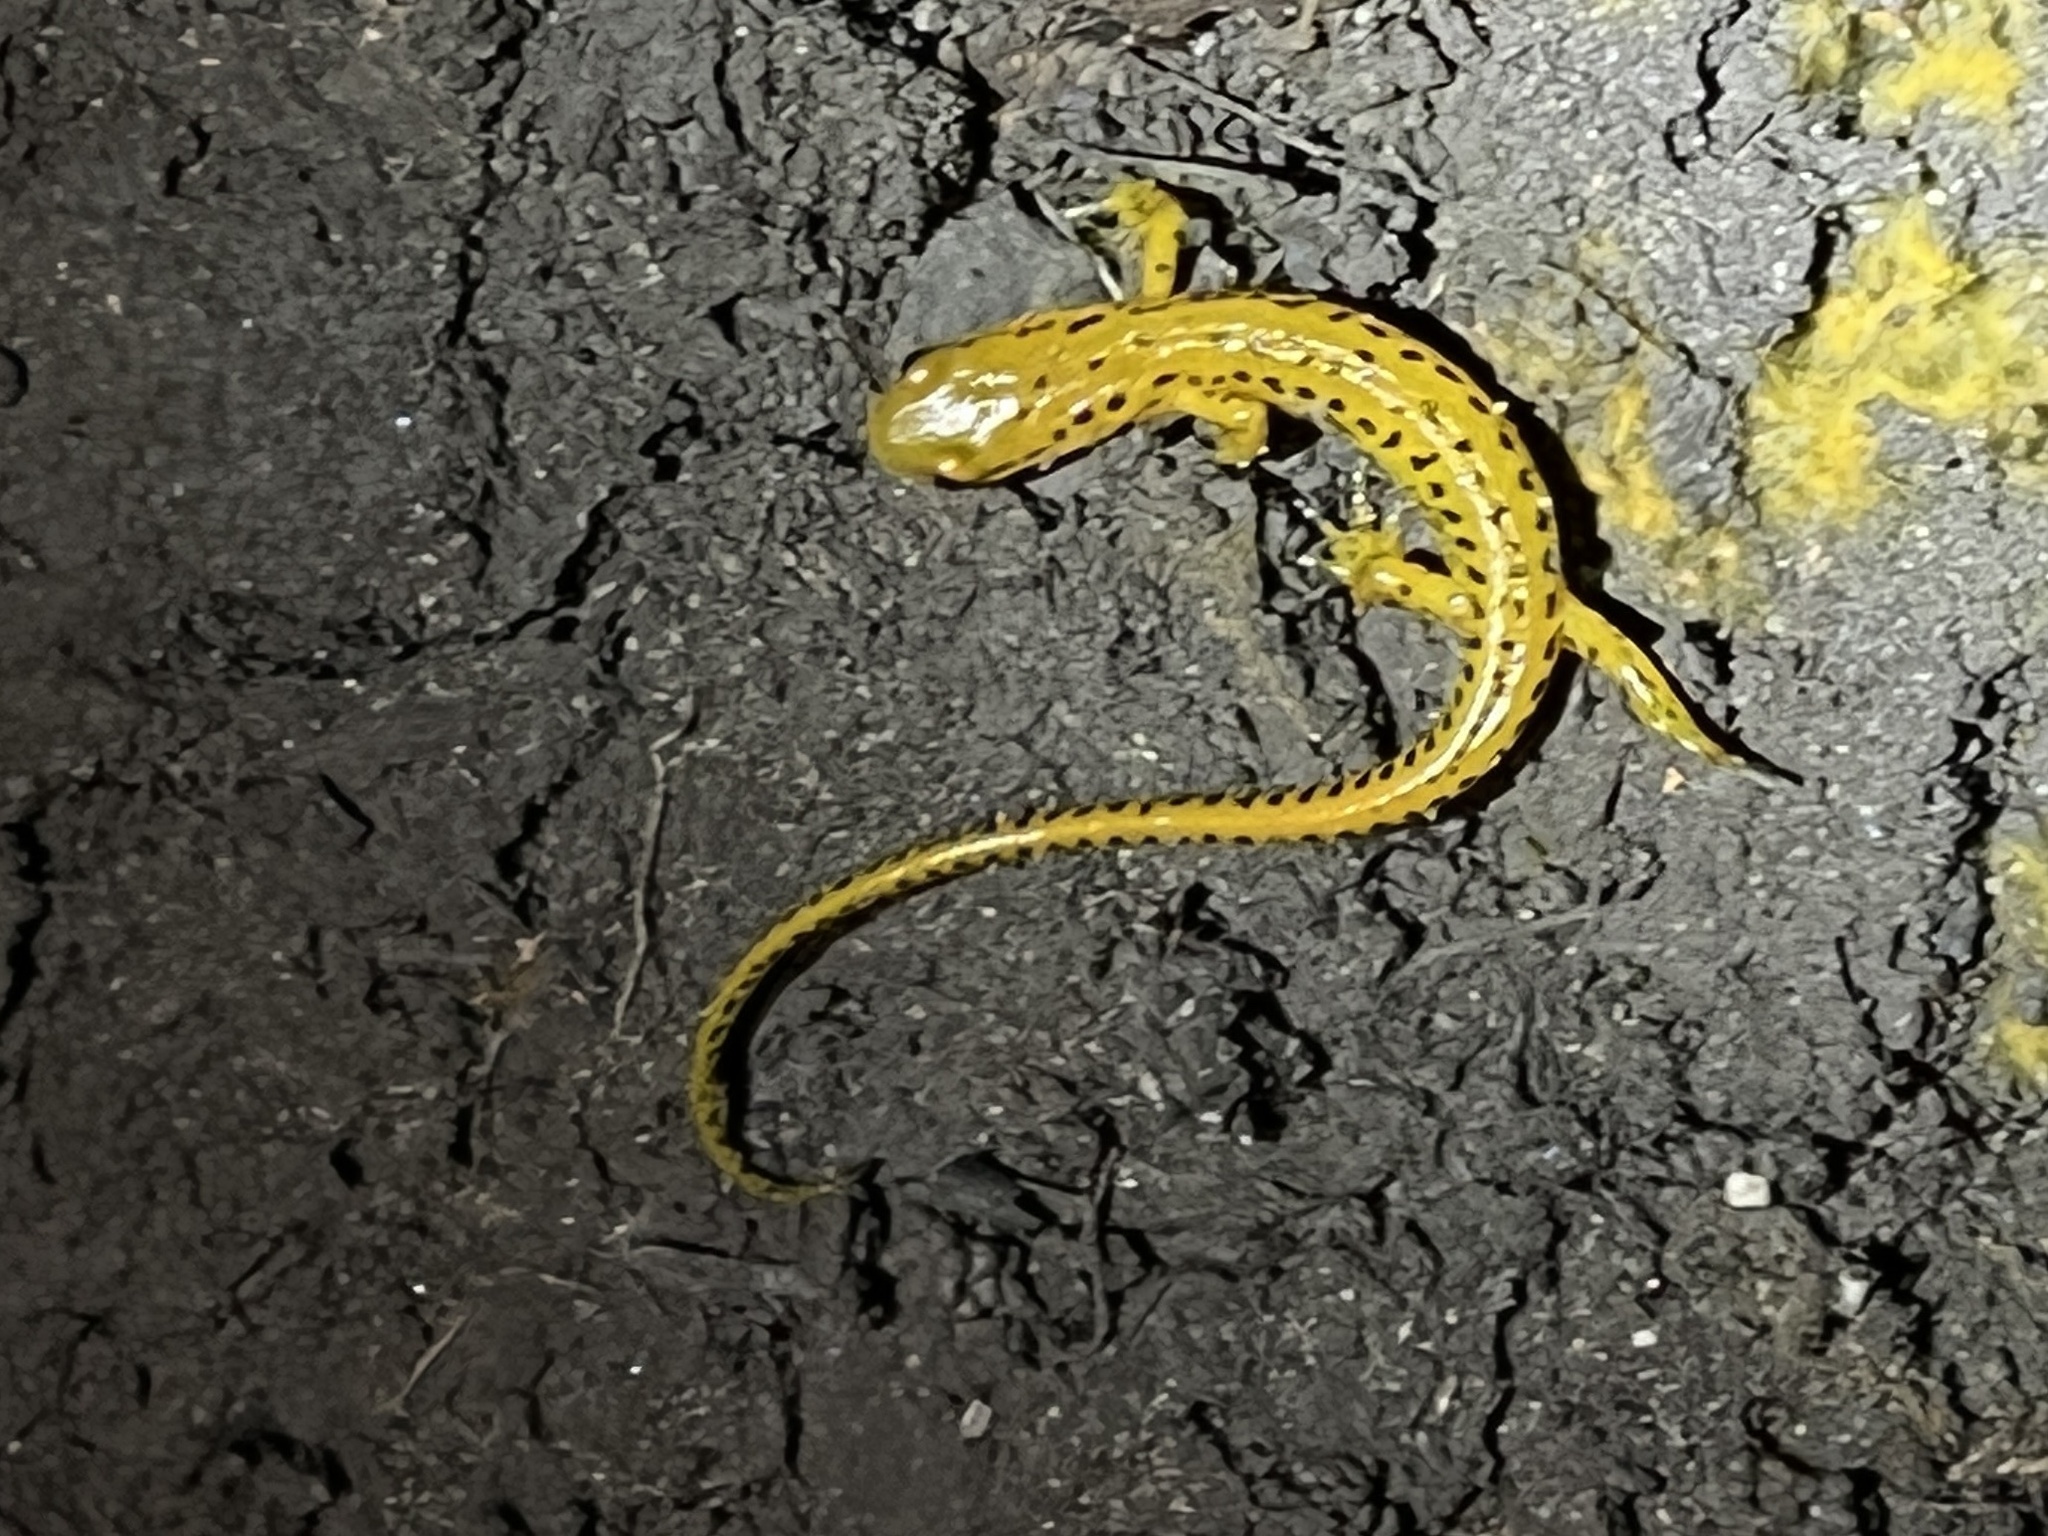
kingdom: Animalia
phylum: Chordata
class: Amphibia
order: Caudata
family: Plethodontidae
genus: Eurycea
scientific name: Eurycea longicauda
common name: Long-tailed salamander
